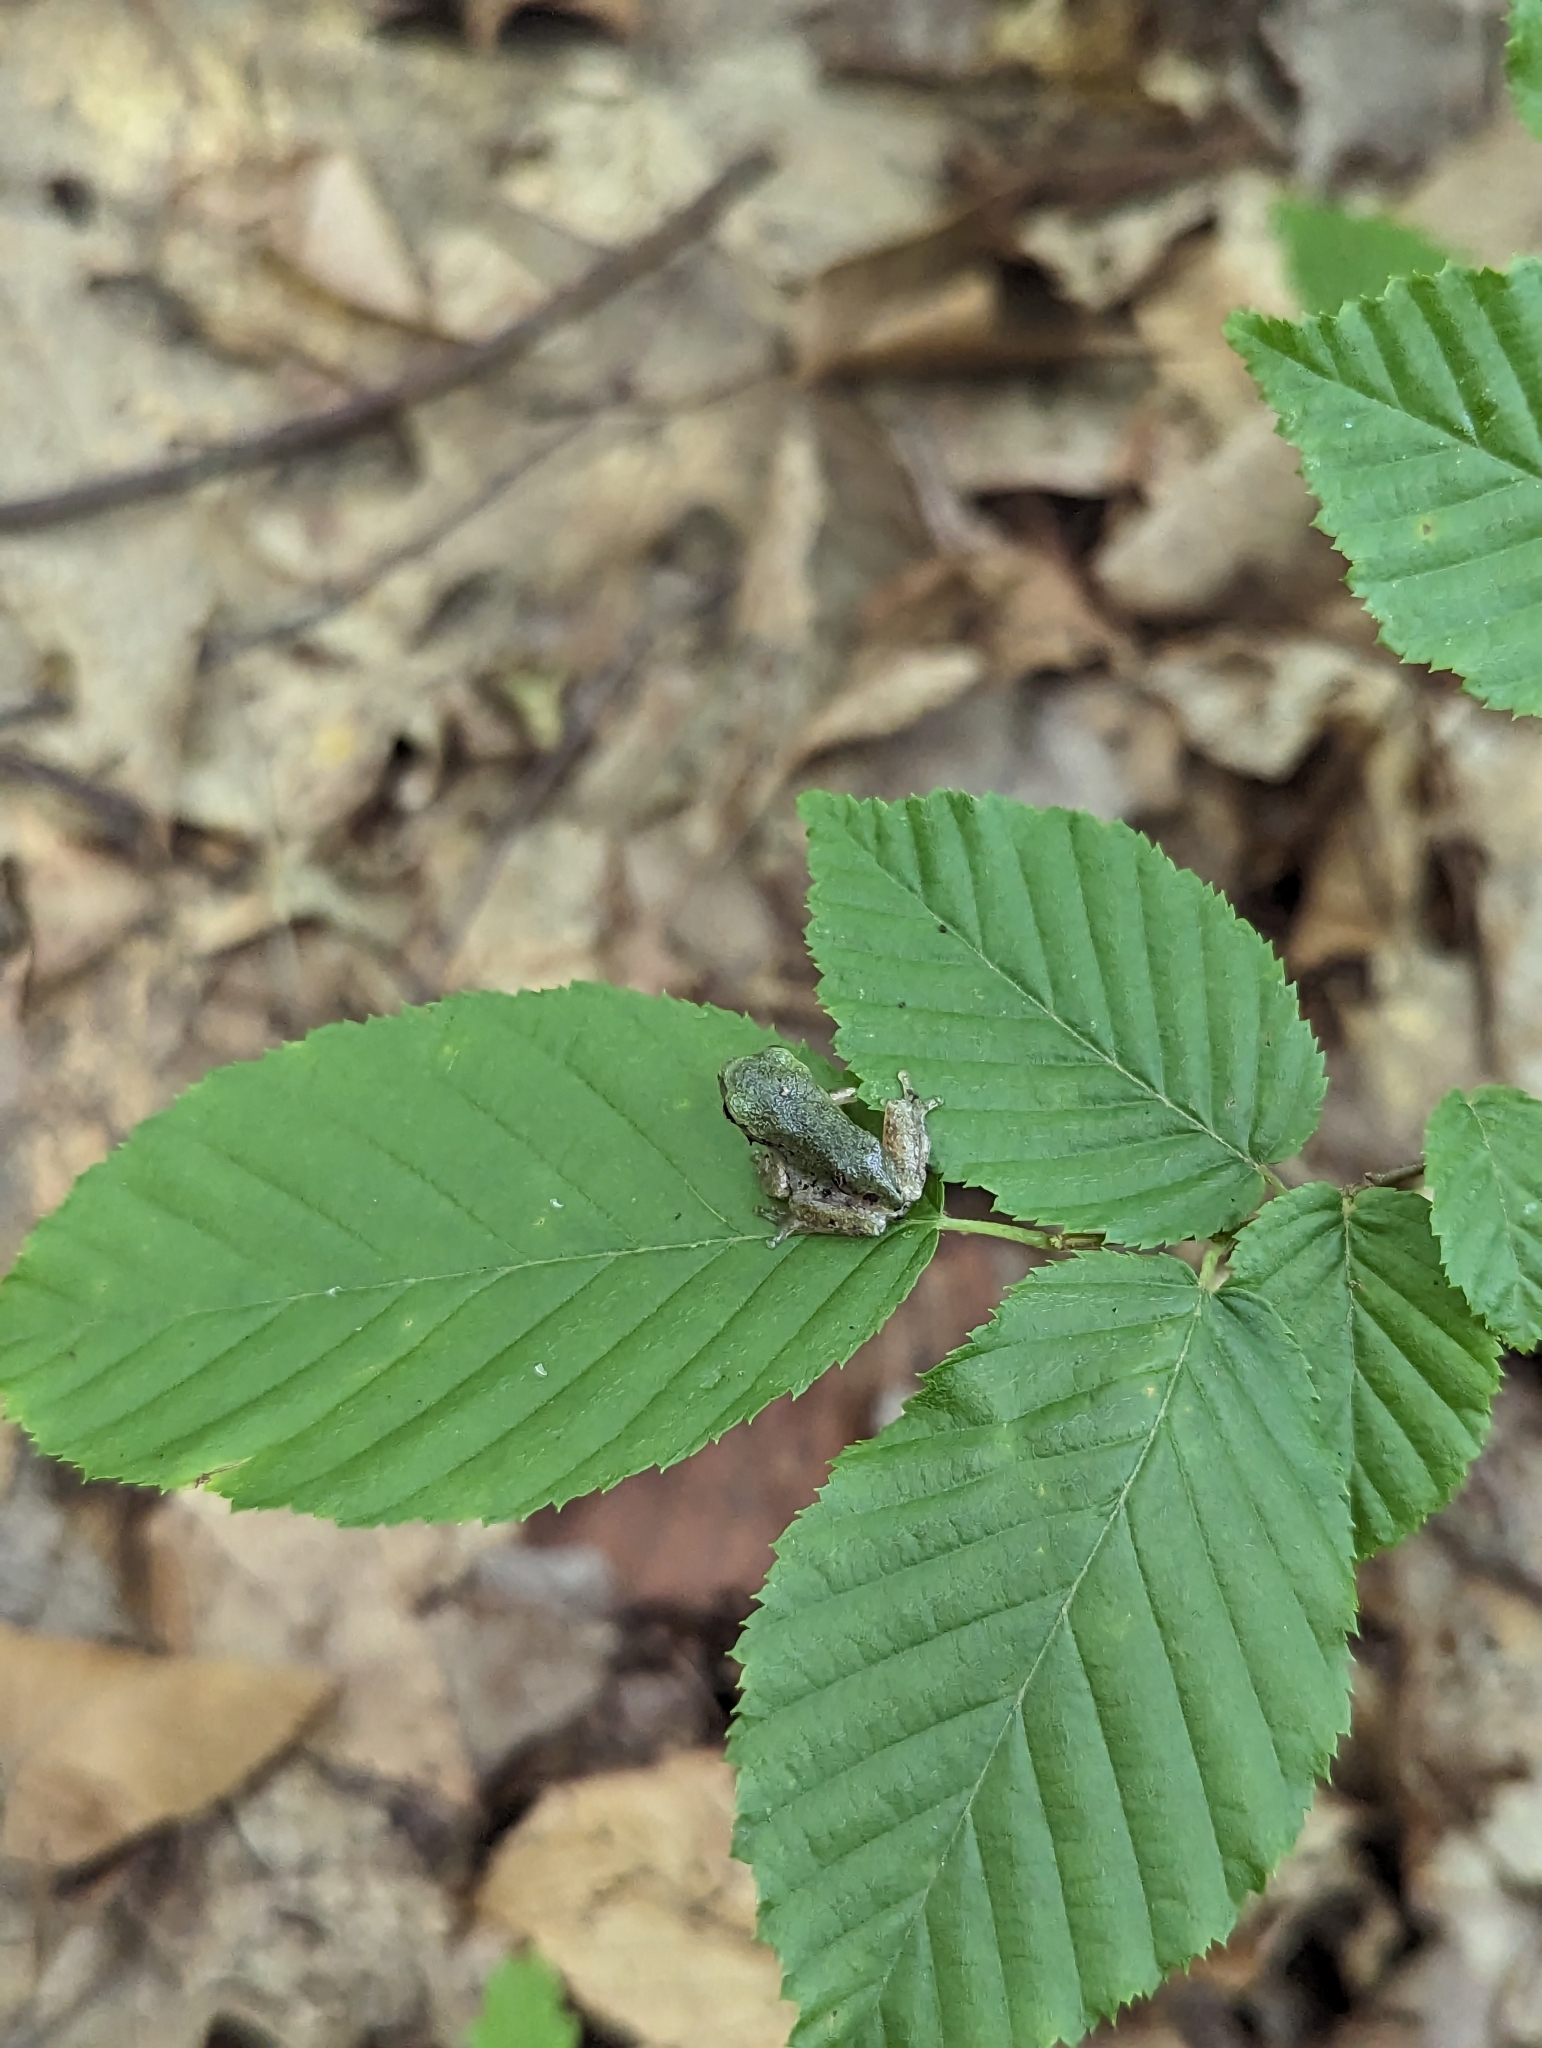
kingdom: Animalia
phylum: Chordata
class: Amphibia
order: Anura
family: Hylidae
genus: Dryophytes
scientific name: Dryophytes versicolor
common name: Gray treefrog
